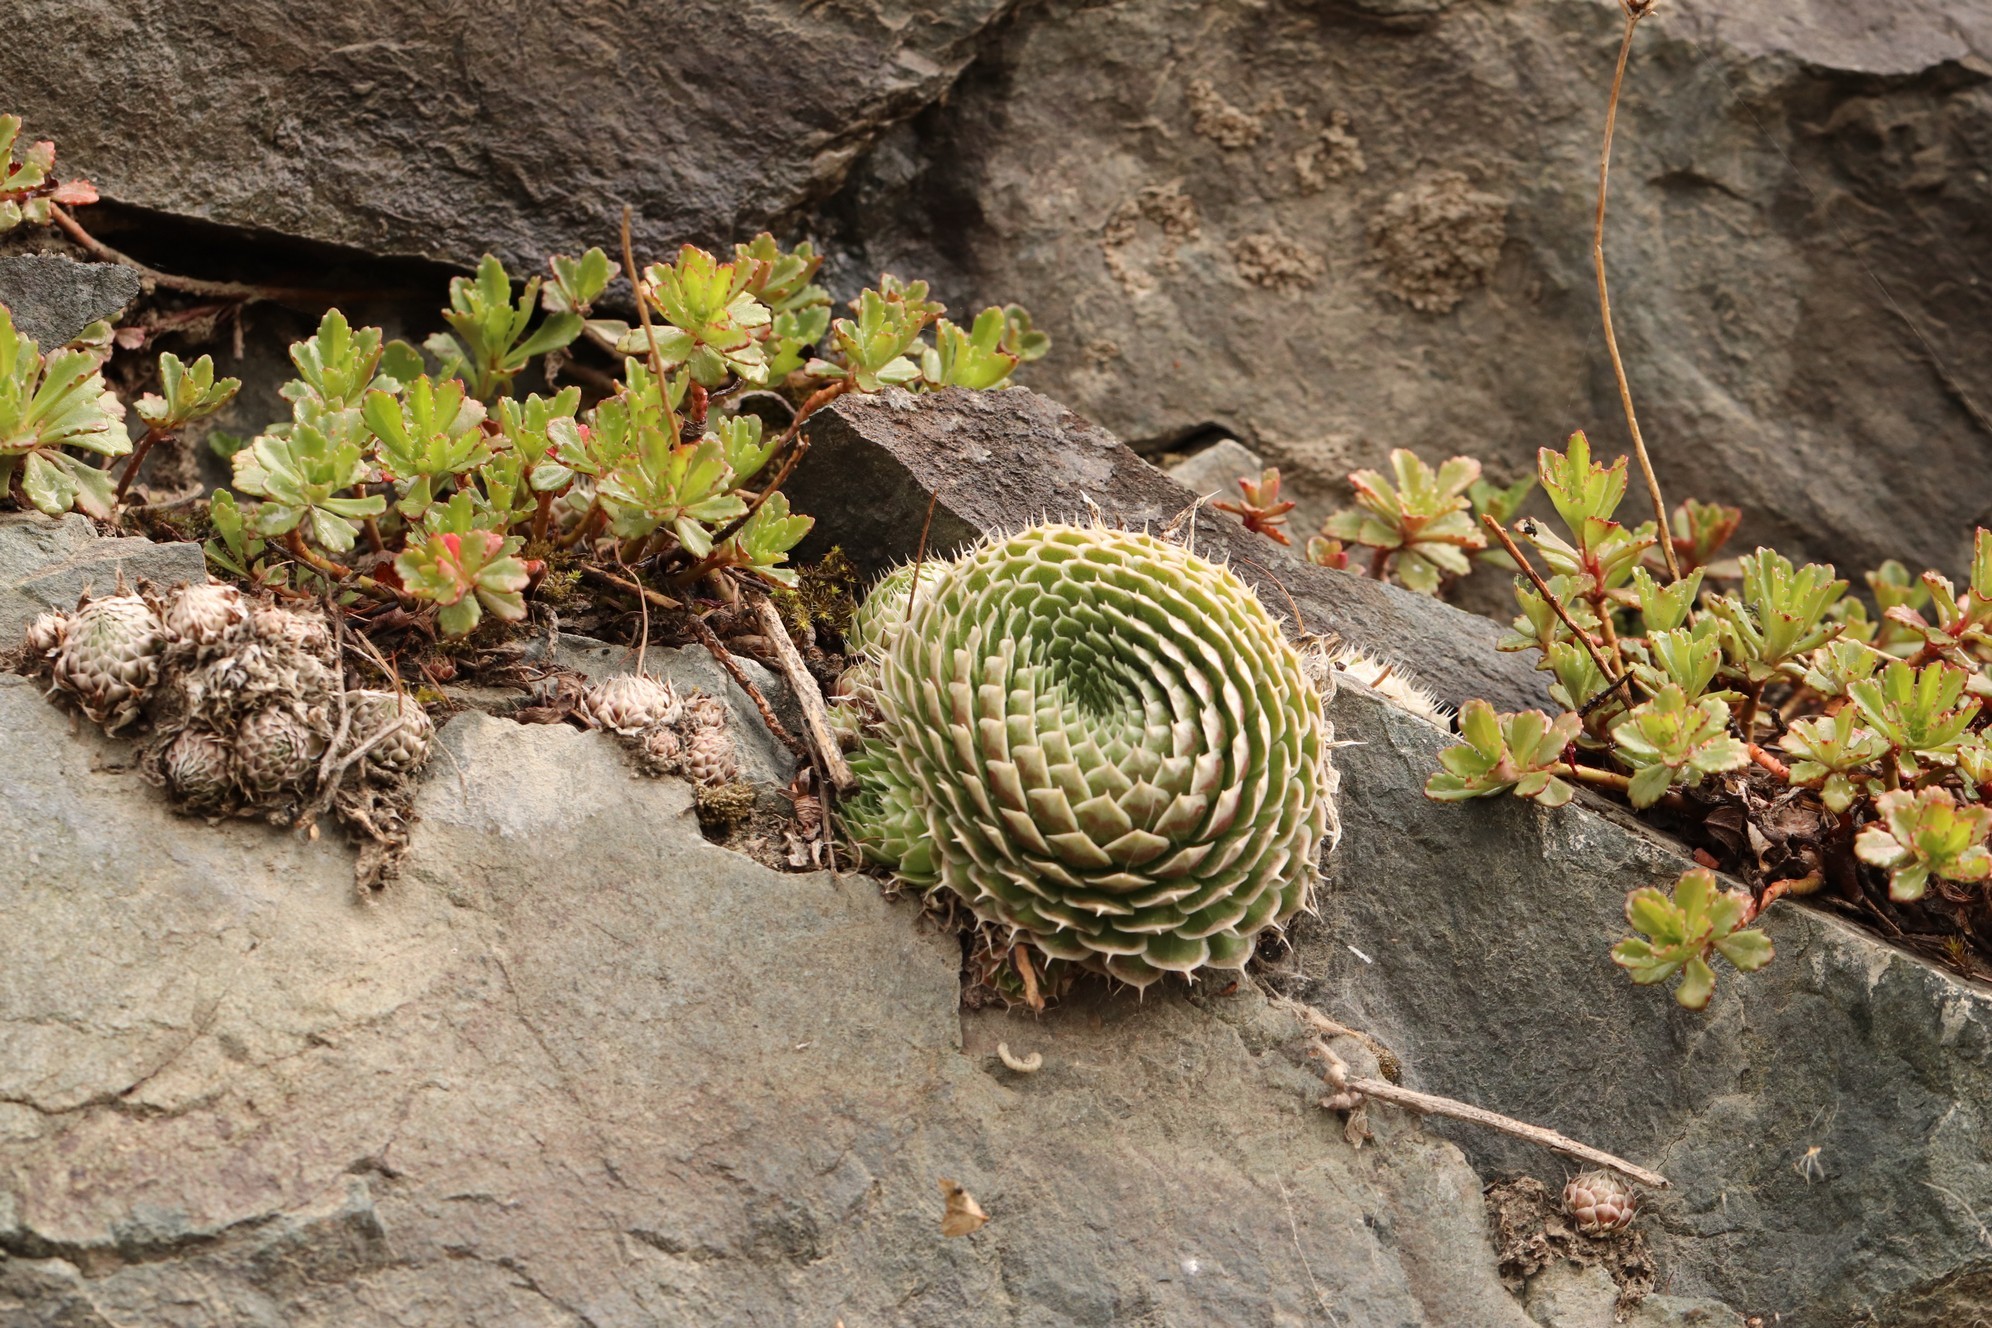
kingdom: Plantae
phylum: Tracheophyta
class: Magnoliopsida
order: Saxifragales
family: Crassulaceae
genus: Orostachys
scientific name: Orostachys spinosa
